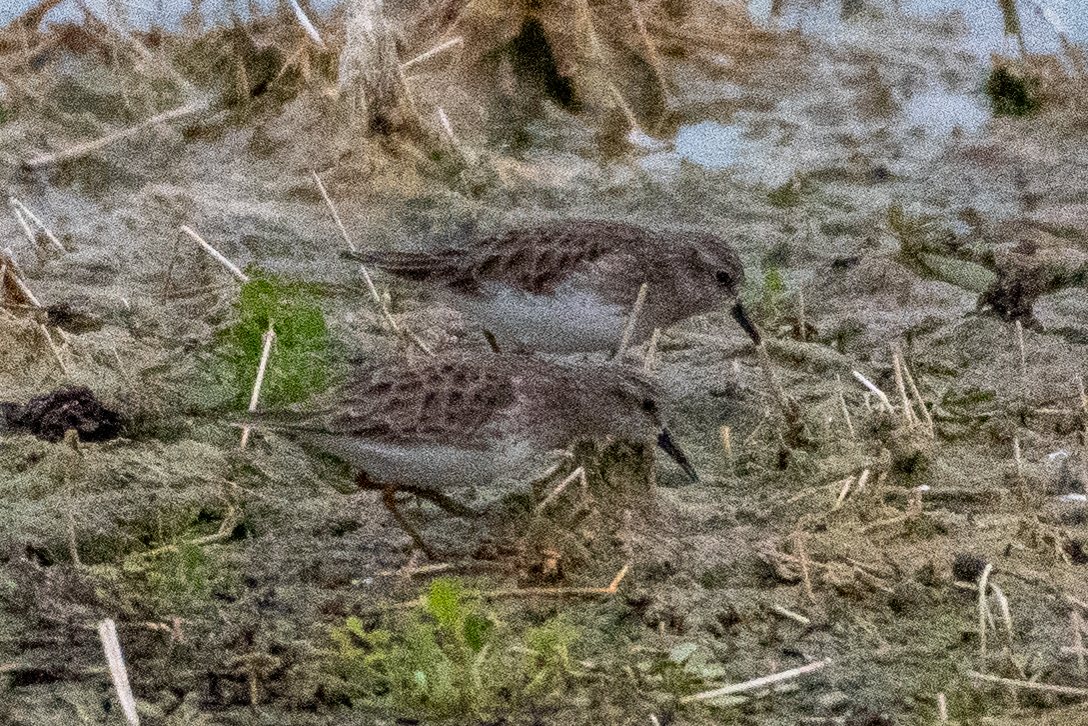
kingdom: Animalia
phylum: Chordata
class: Aves
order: Charadriiformes
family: Scolopacidae
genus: Calidris
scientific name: Calidris minutilla
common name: Least sandpiper
